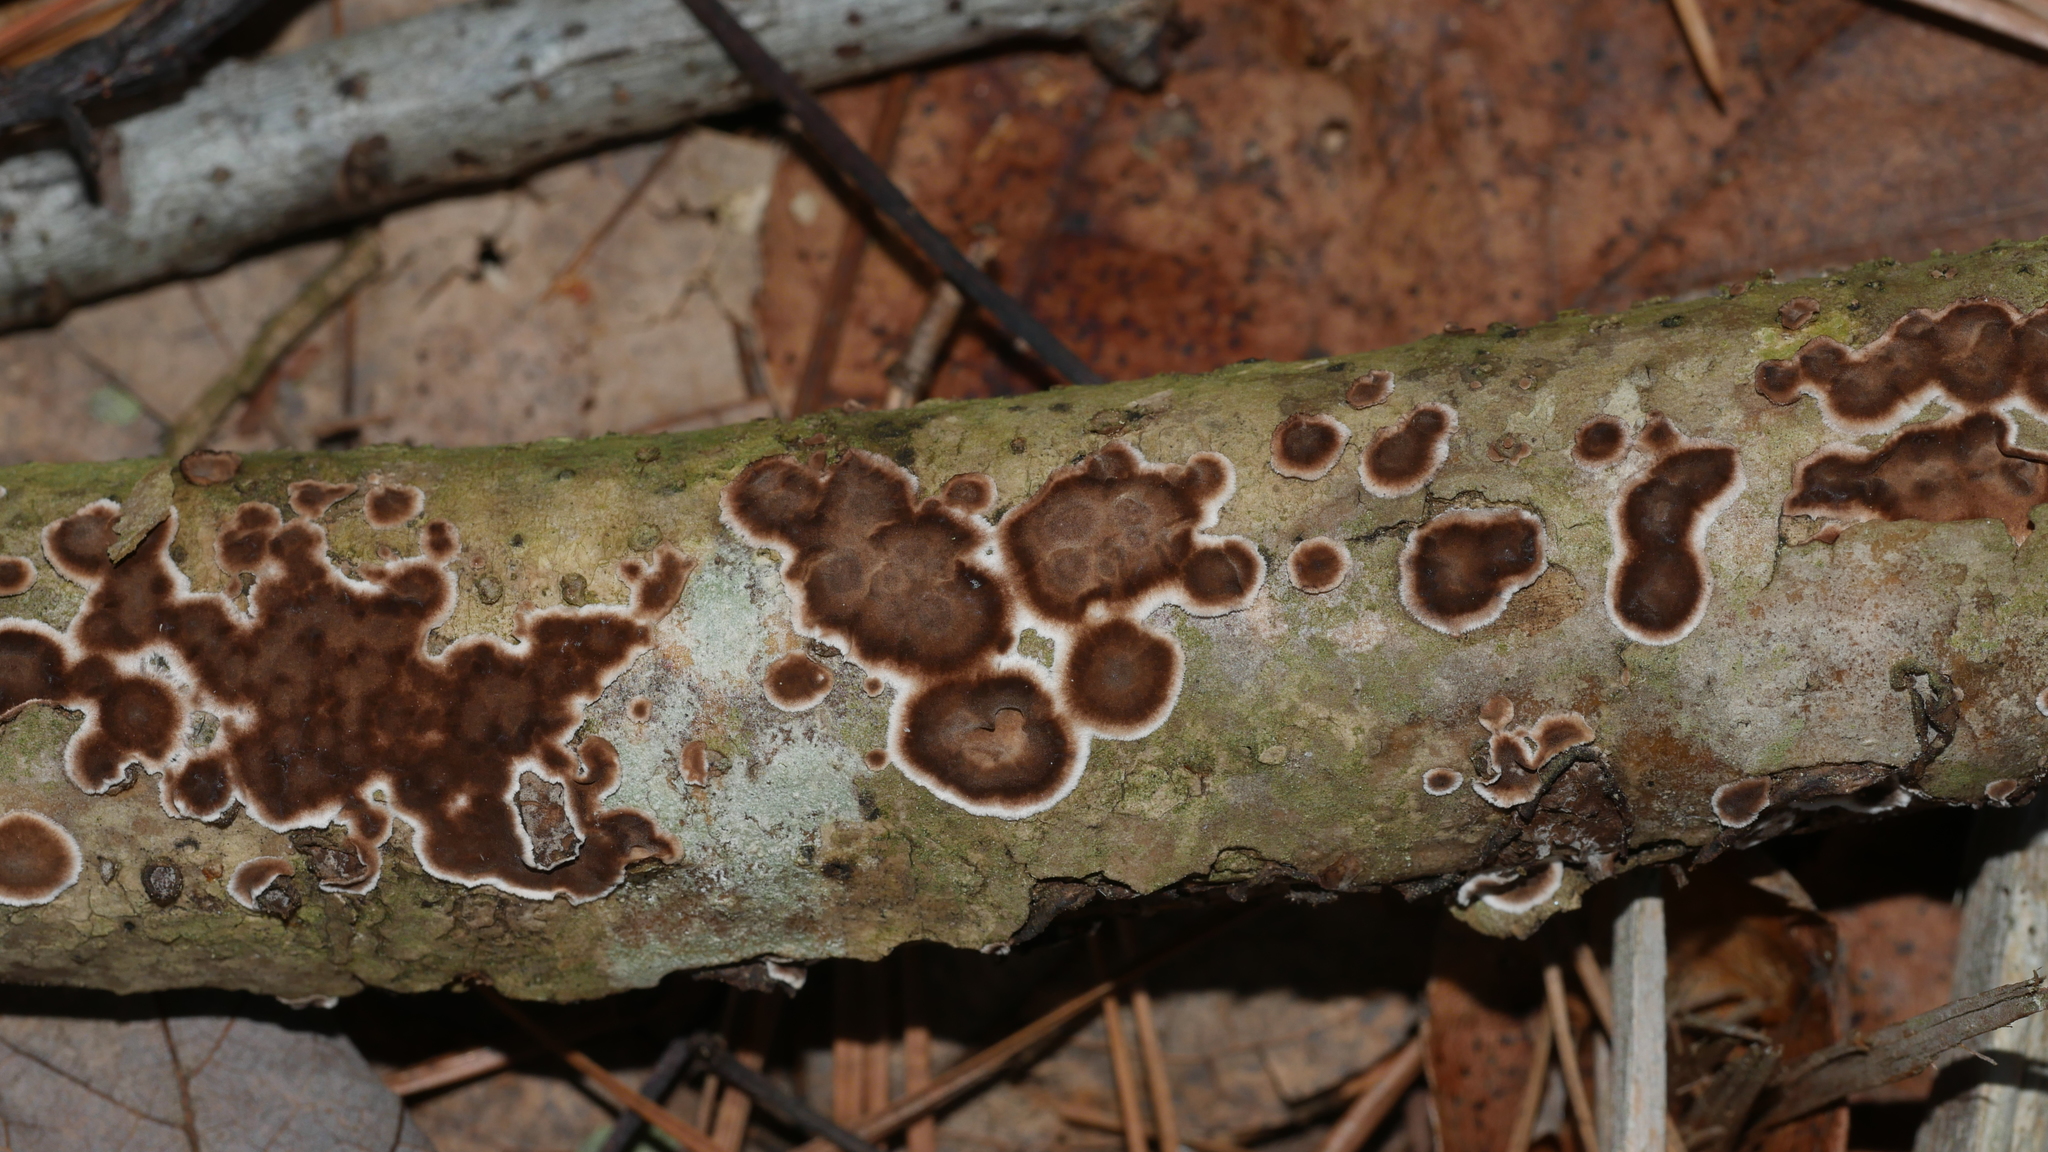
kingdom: Fungi
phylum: Basidiomycota
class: Agaricomycetes
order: Russulales
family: Peniophoraceae
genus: Peniophora
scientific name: Peniophora albobadia
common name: Giraffe spots
